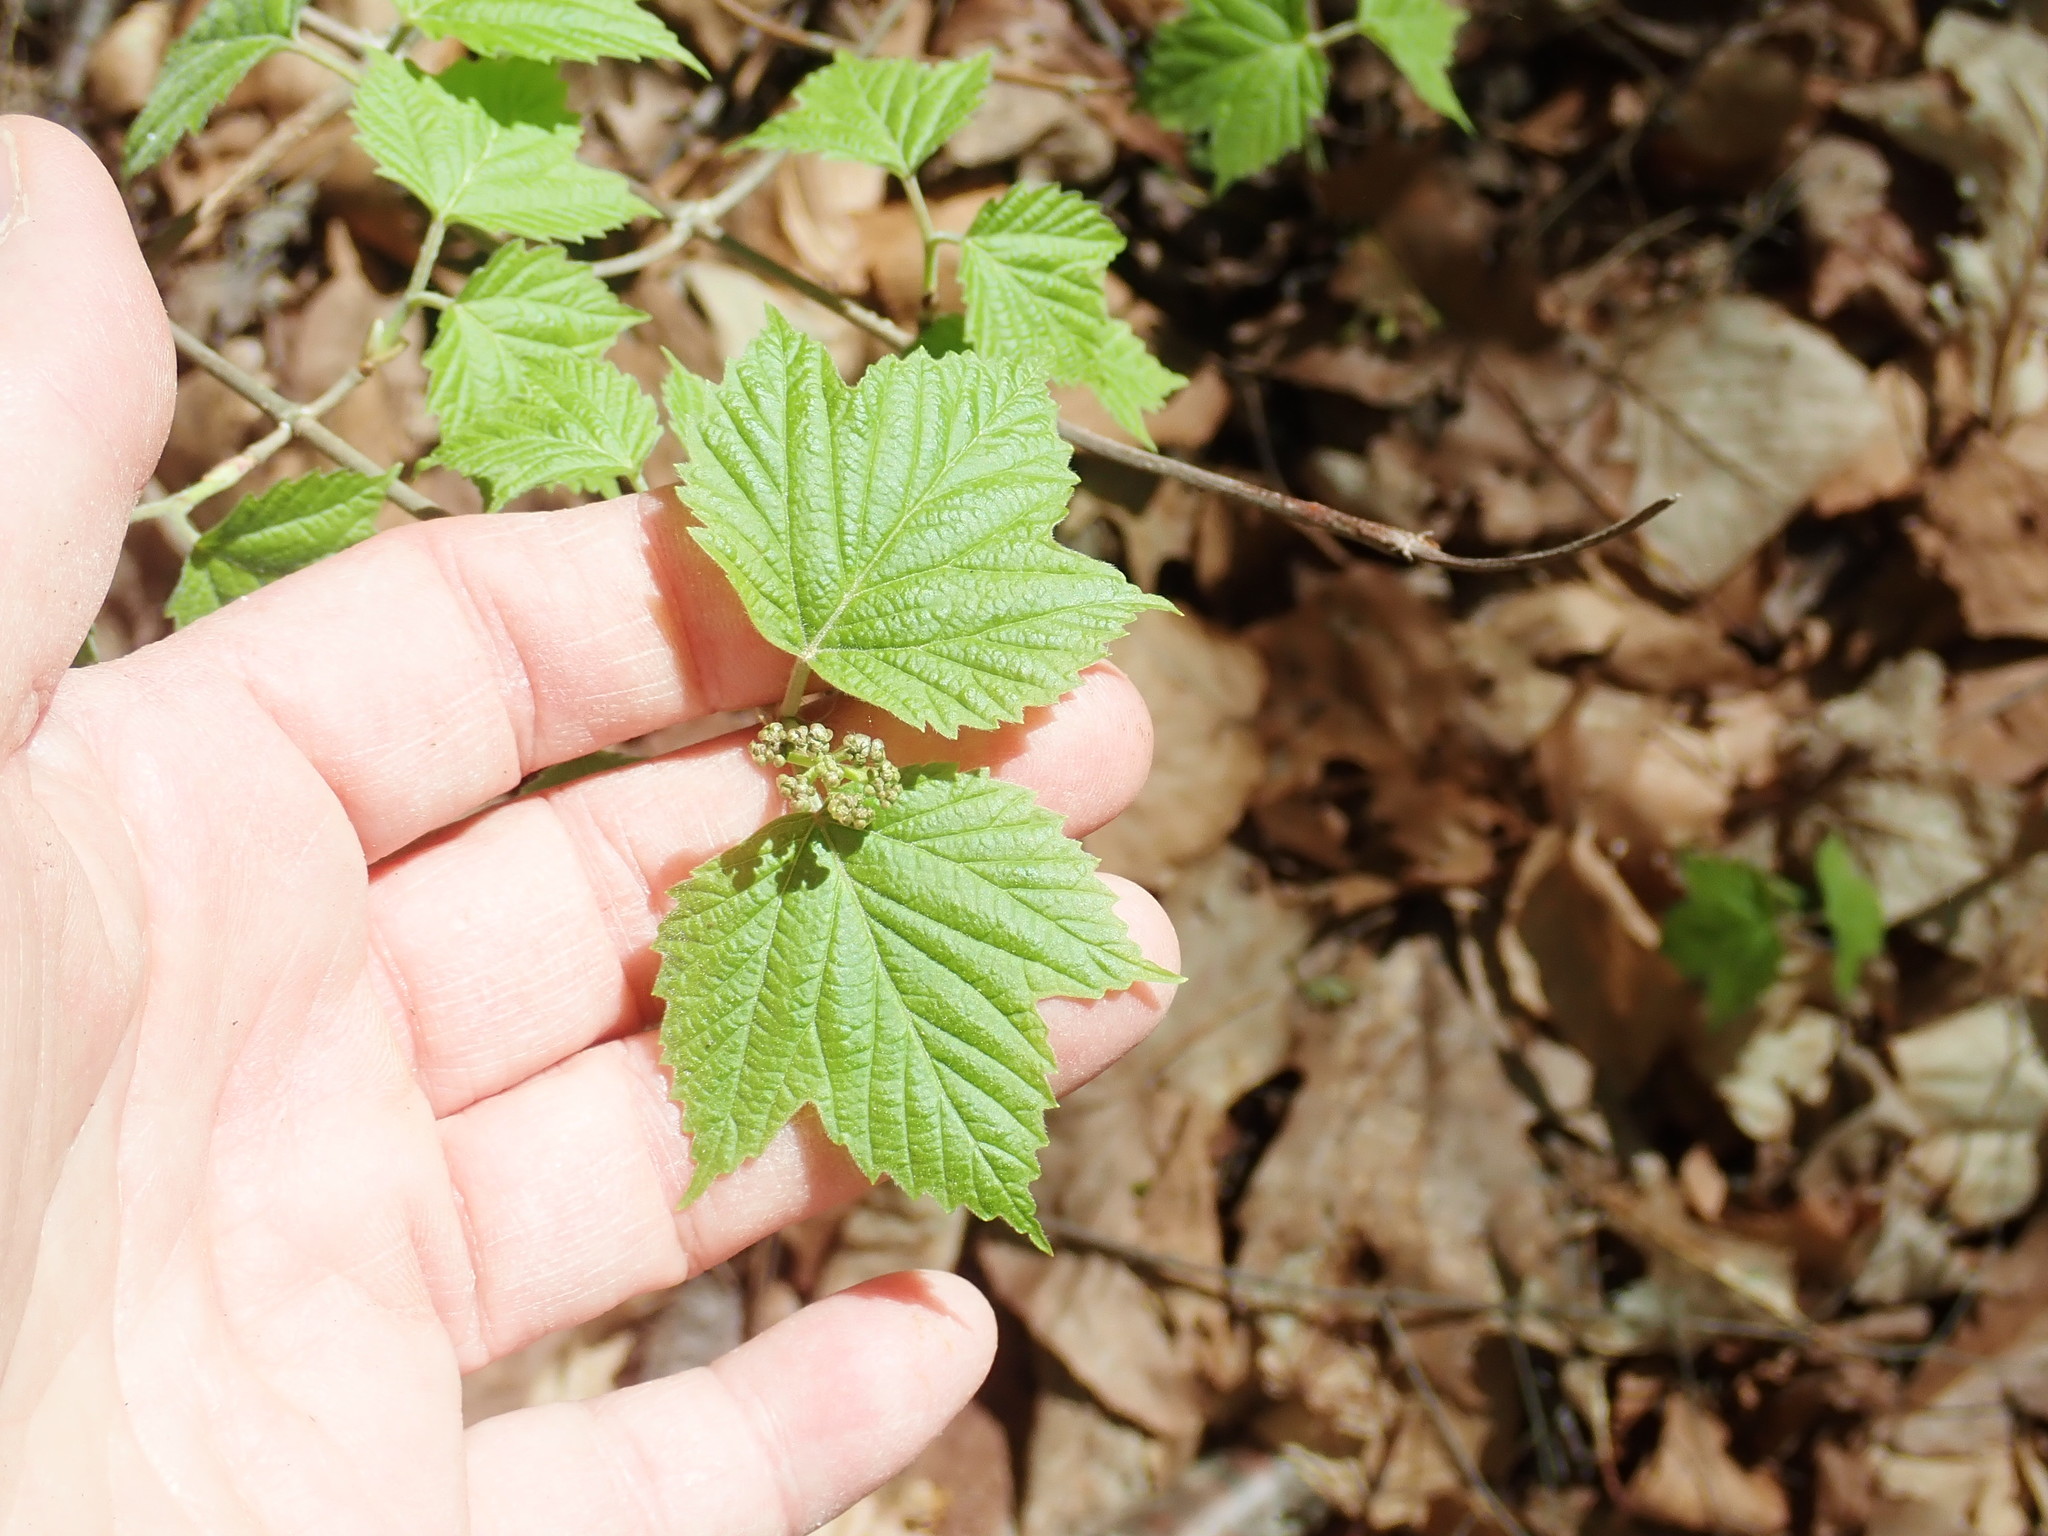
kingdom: Plantae
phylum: Tracheophyta
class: Magnoliopsida
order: Dipsacales
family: Viburnaceae
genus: Viburnum
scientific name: Viburnum acerifolium
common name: Dockmackie
